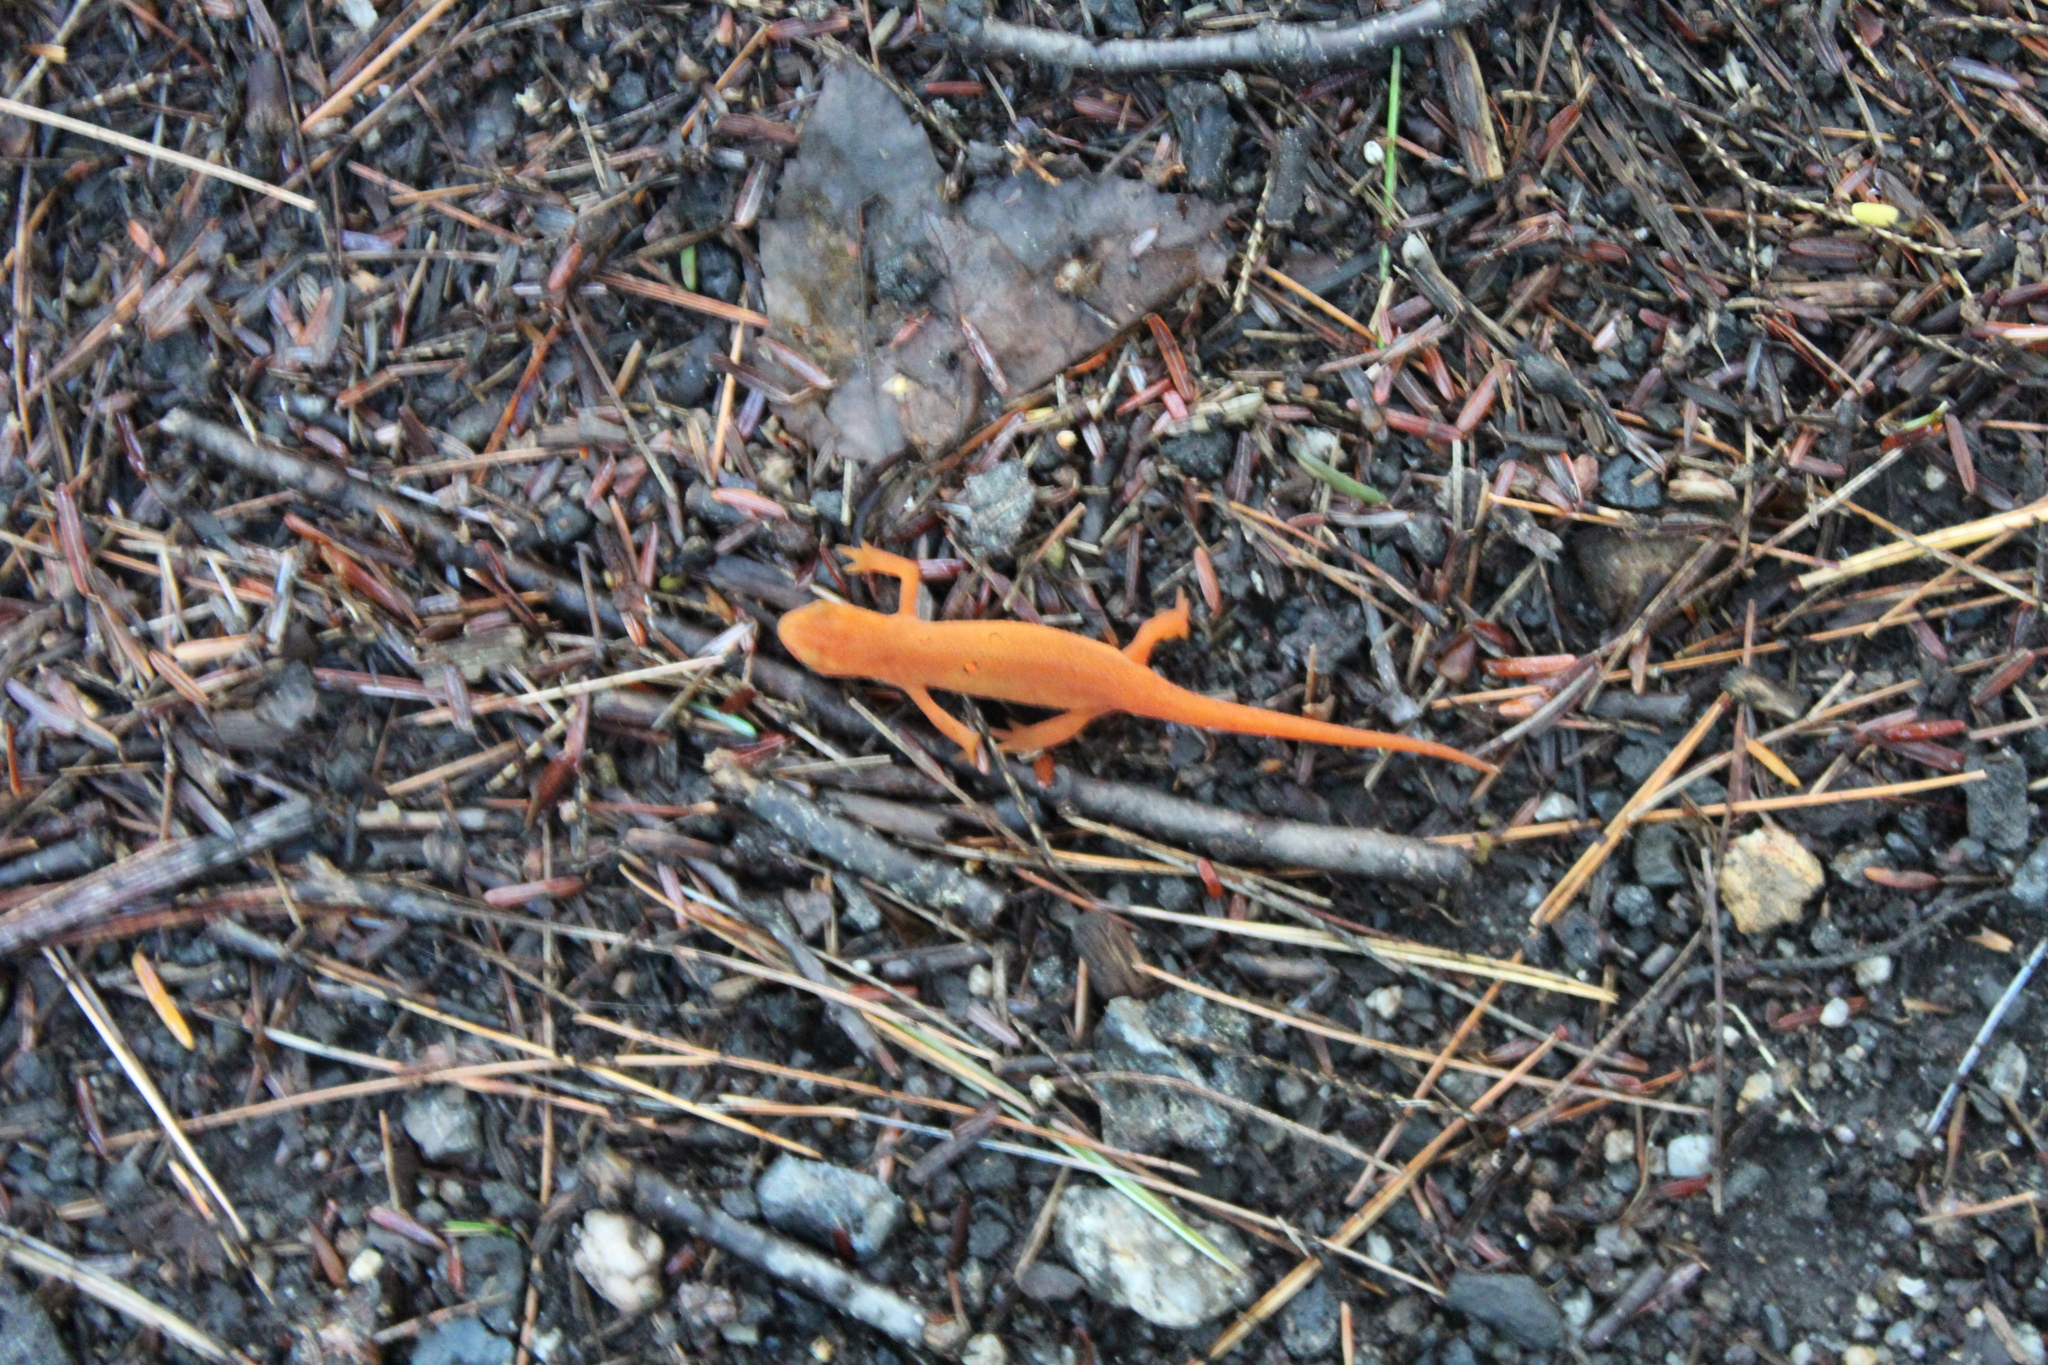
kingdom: Animalia
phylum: Chordata
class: Amphibia
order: Caudata
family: Salamandridae
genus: Notophthalmus
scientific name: Notophthalmus viridescens
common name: Eastern newt
